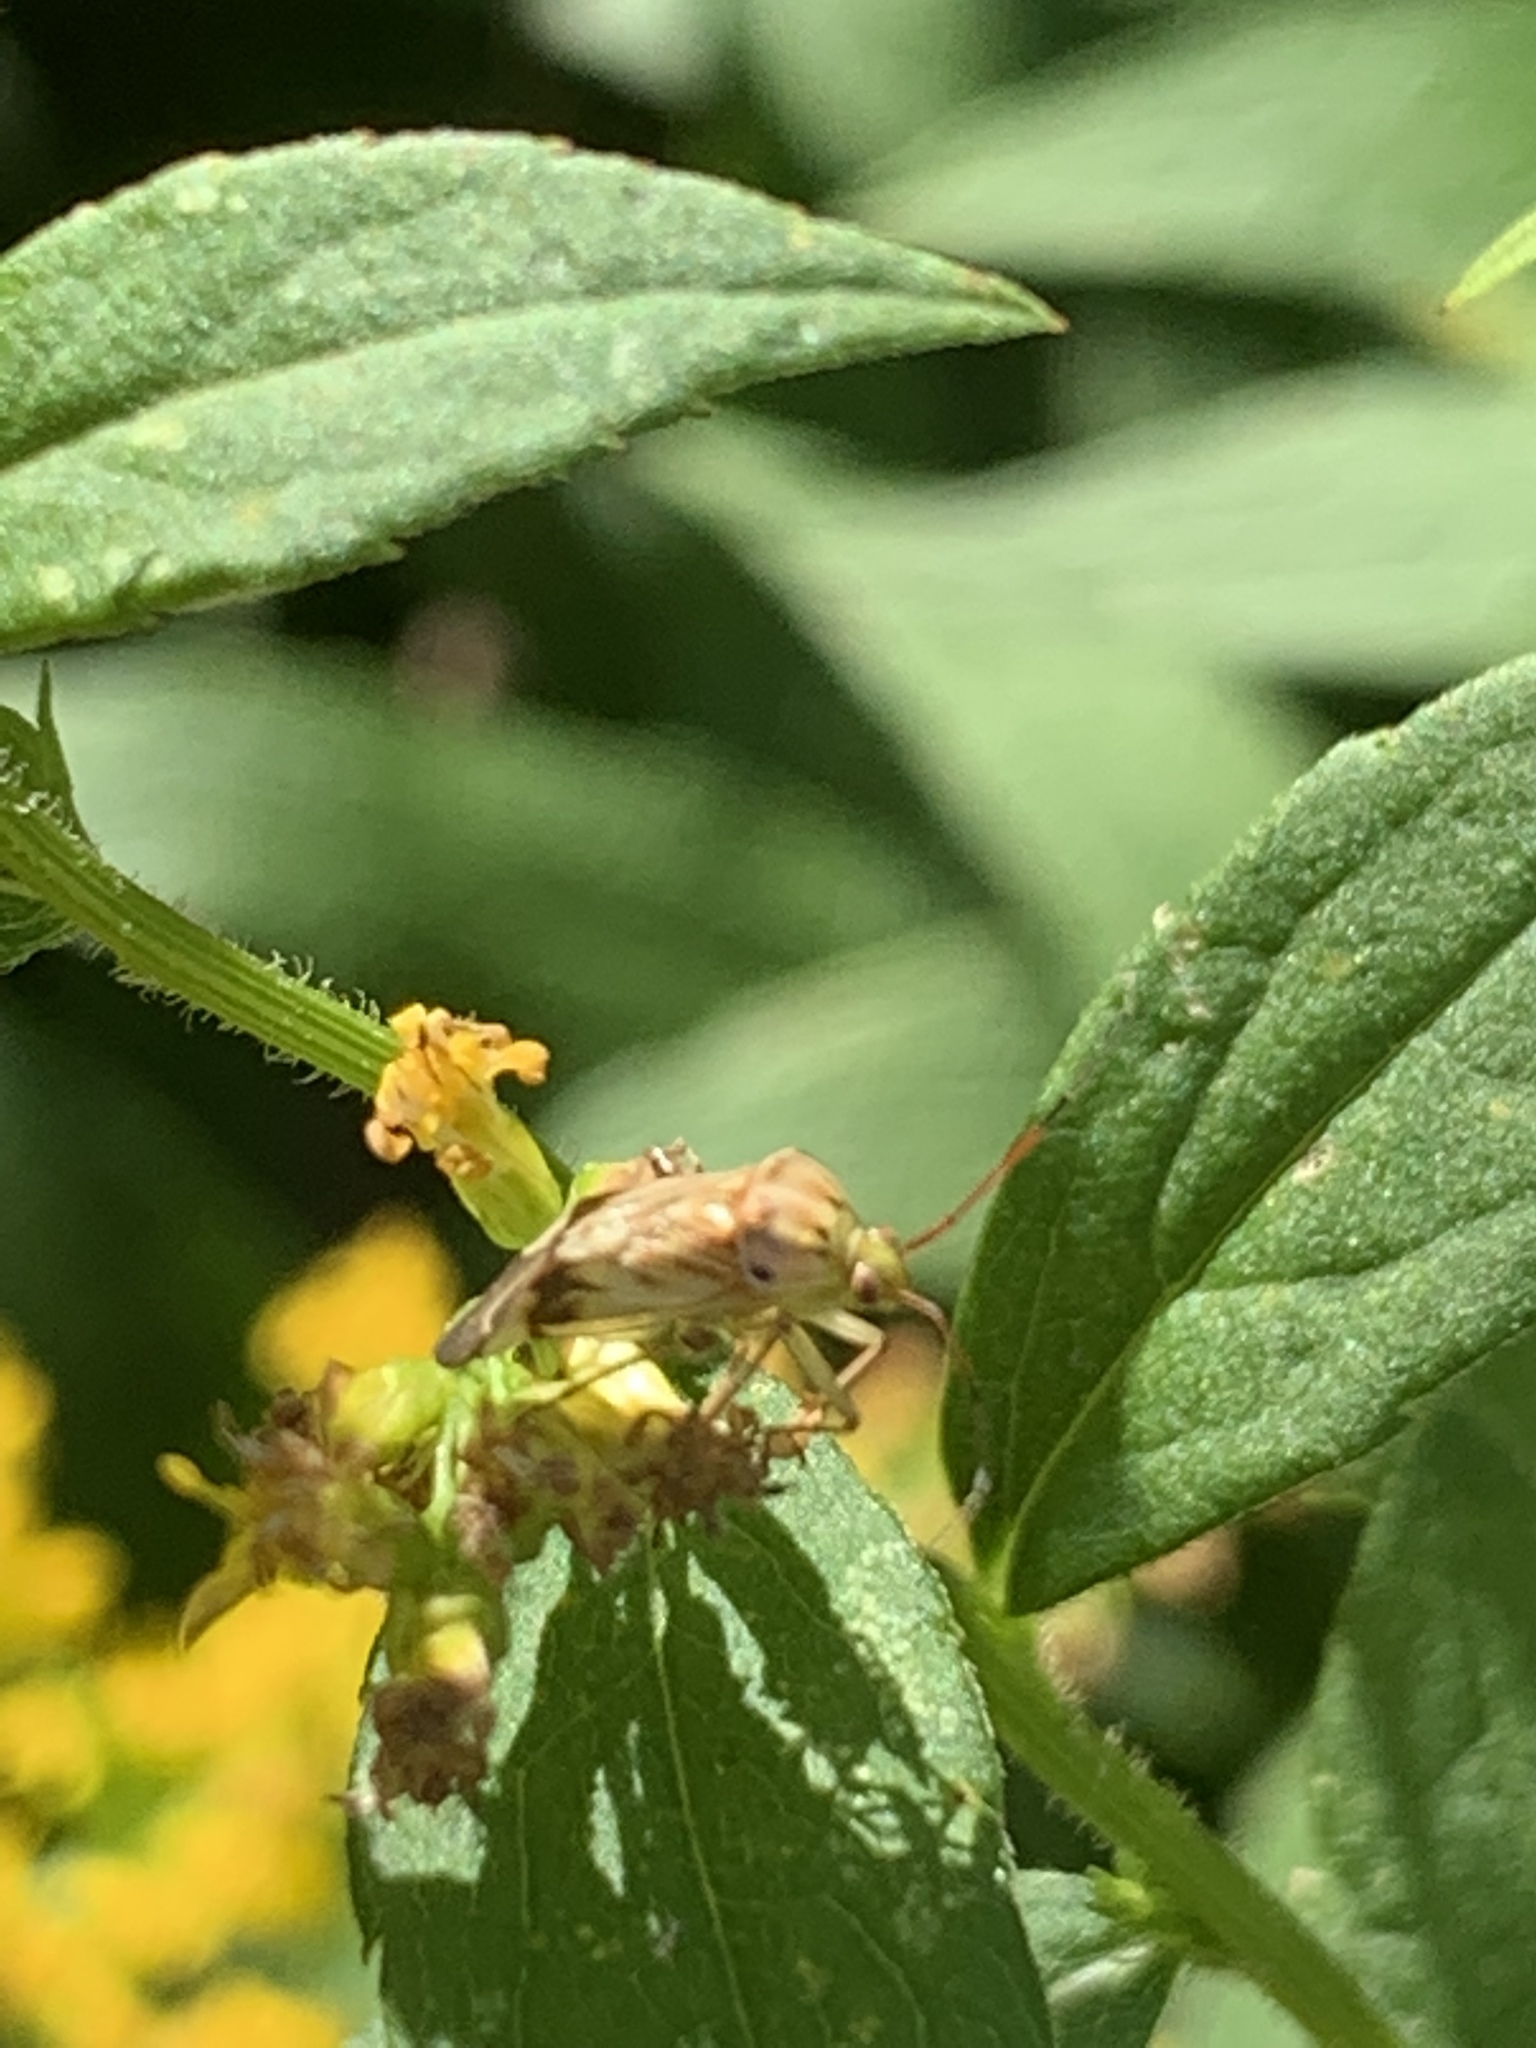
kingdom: Animalia
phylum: Arthropoda
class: Insecta
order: Hemiptera
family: Miridae
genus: Lygus
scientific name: Lygus lineolaris
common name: North american tarnished plant bug
